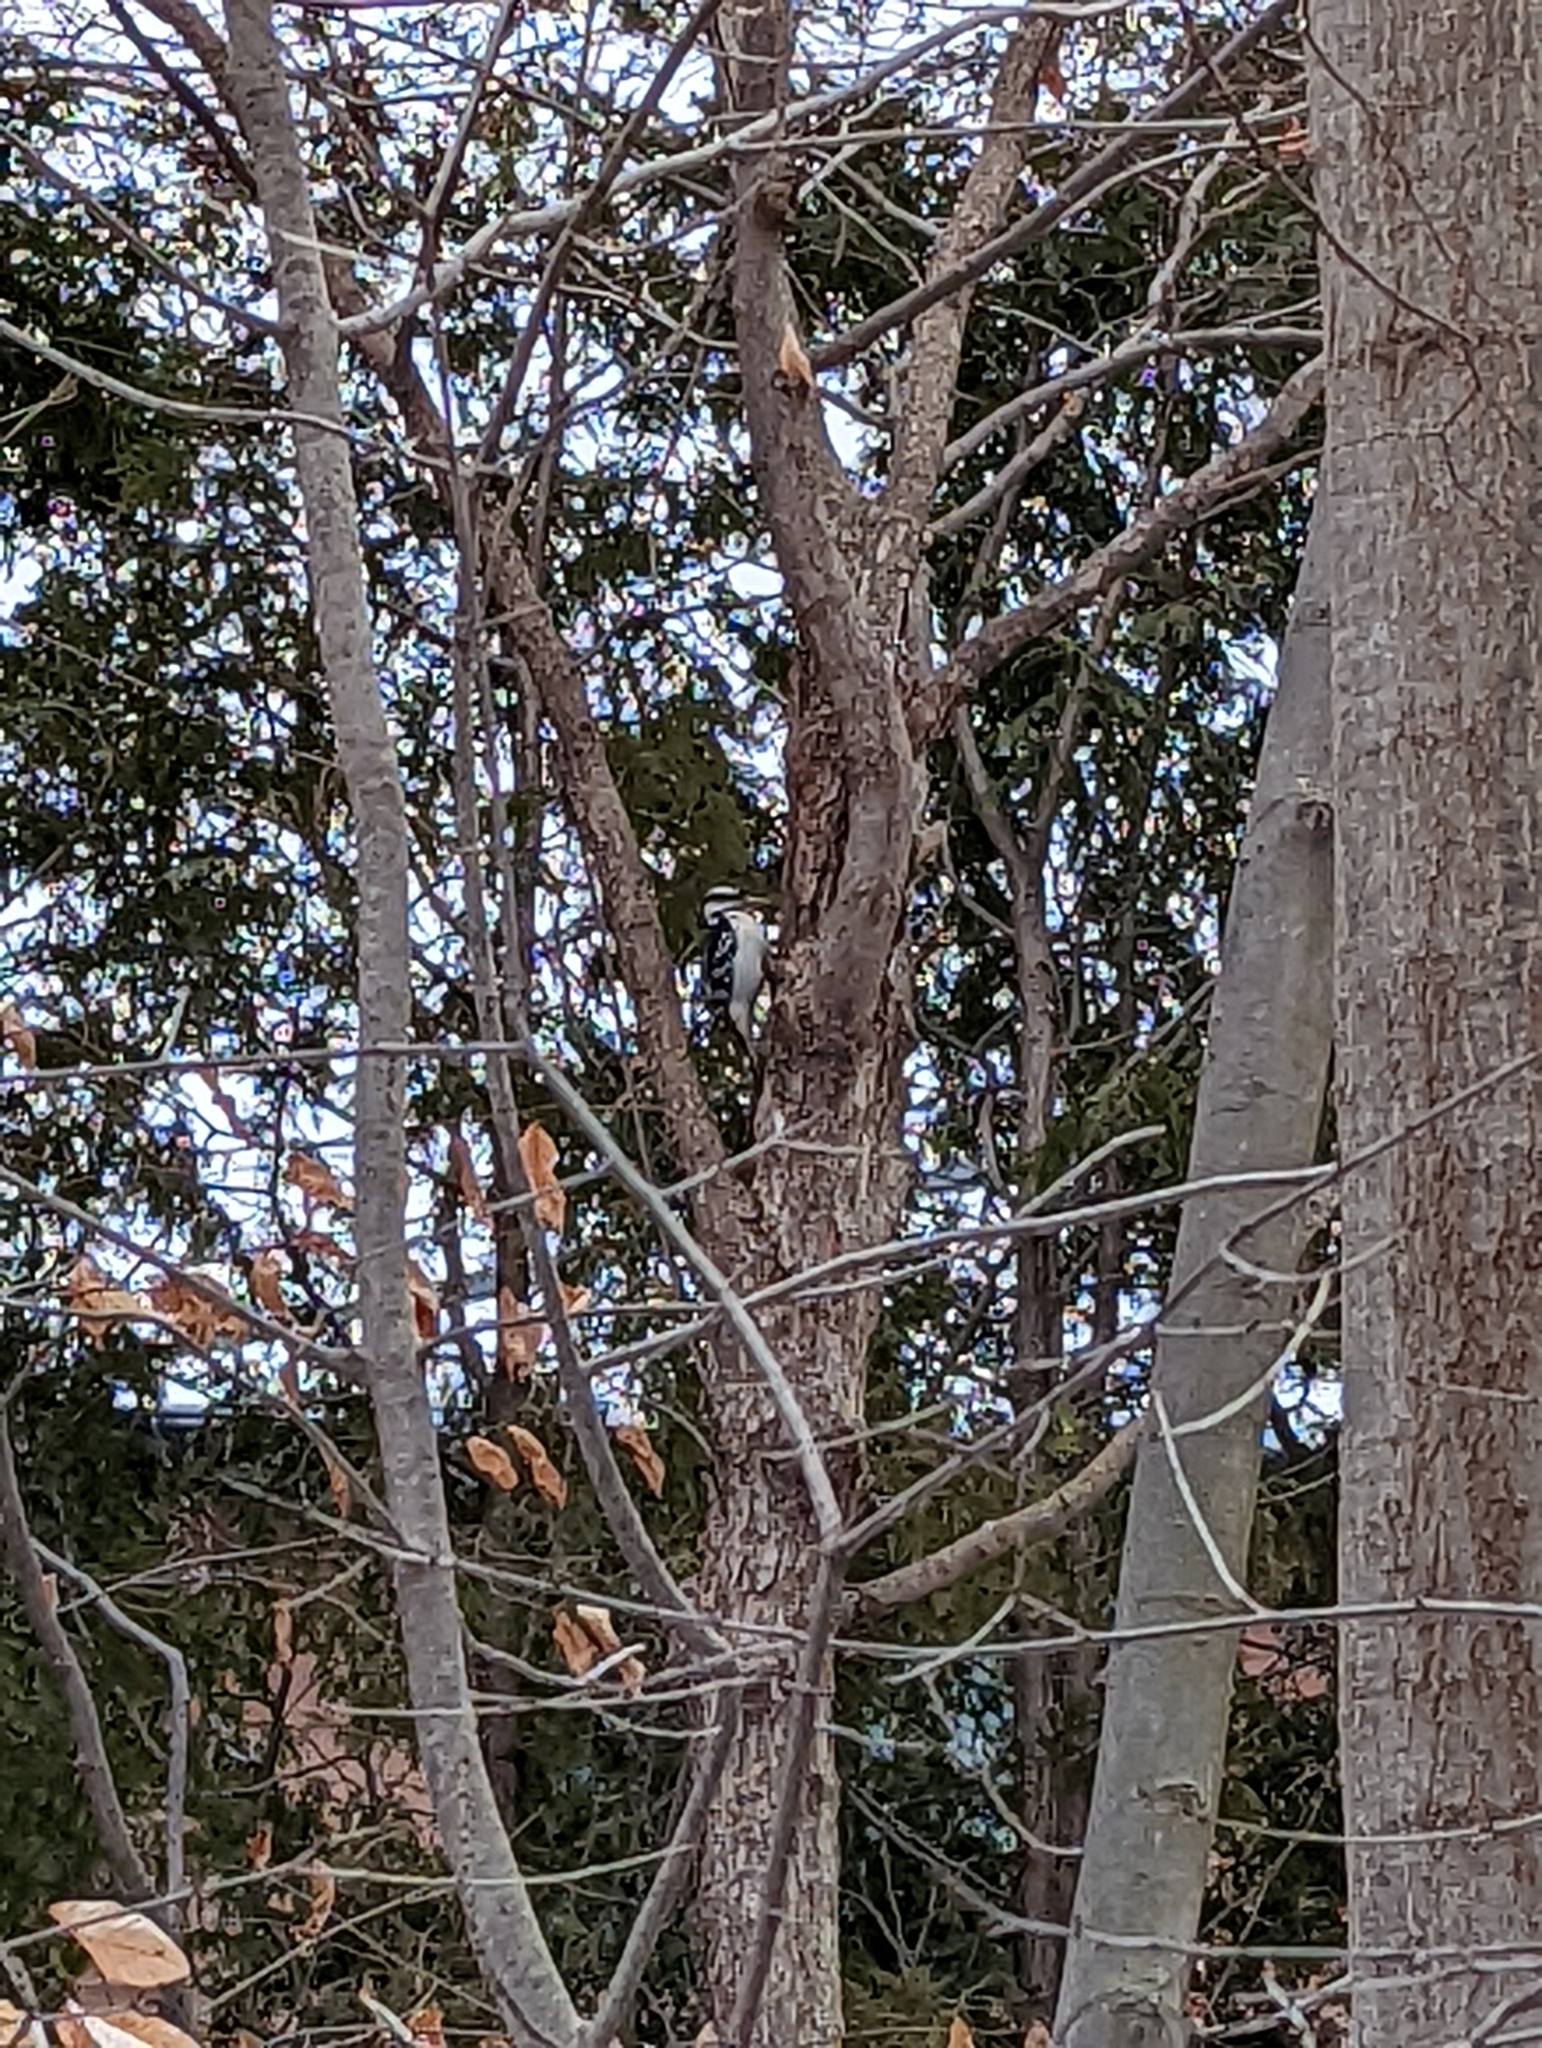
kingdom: Animalia
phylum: Chordata
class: Aves
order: Piciformes
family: Picidae
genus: Leuconotopicus
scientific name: Leuconotopicus villosus
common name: Hairy woodpecker
